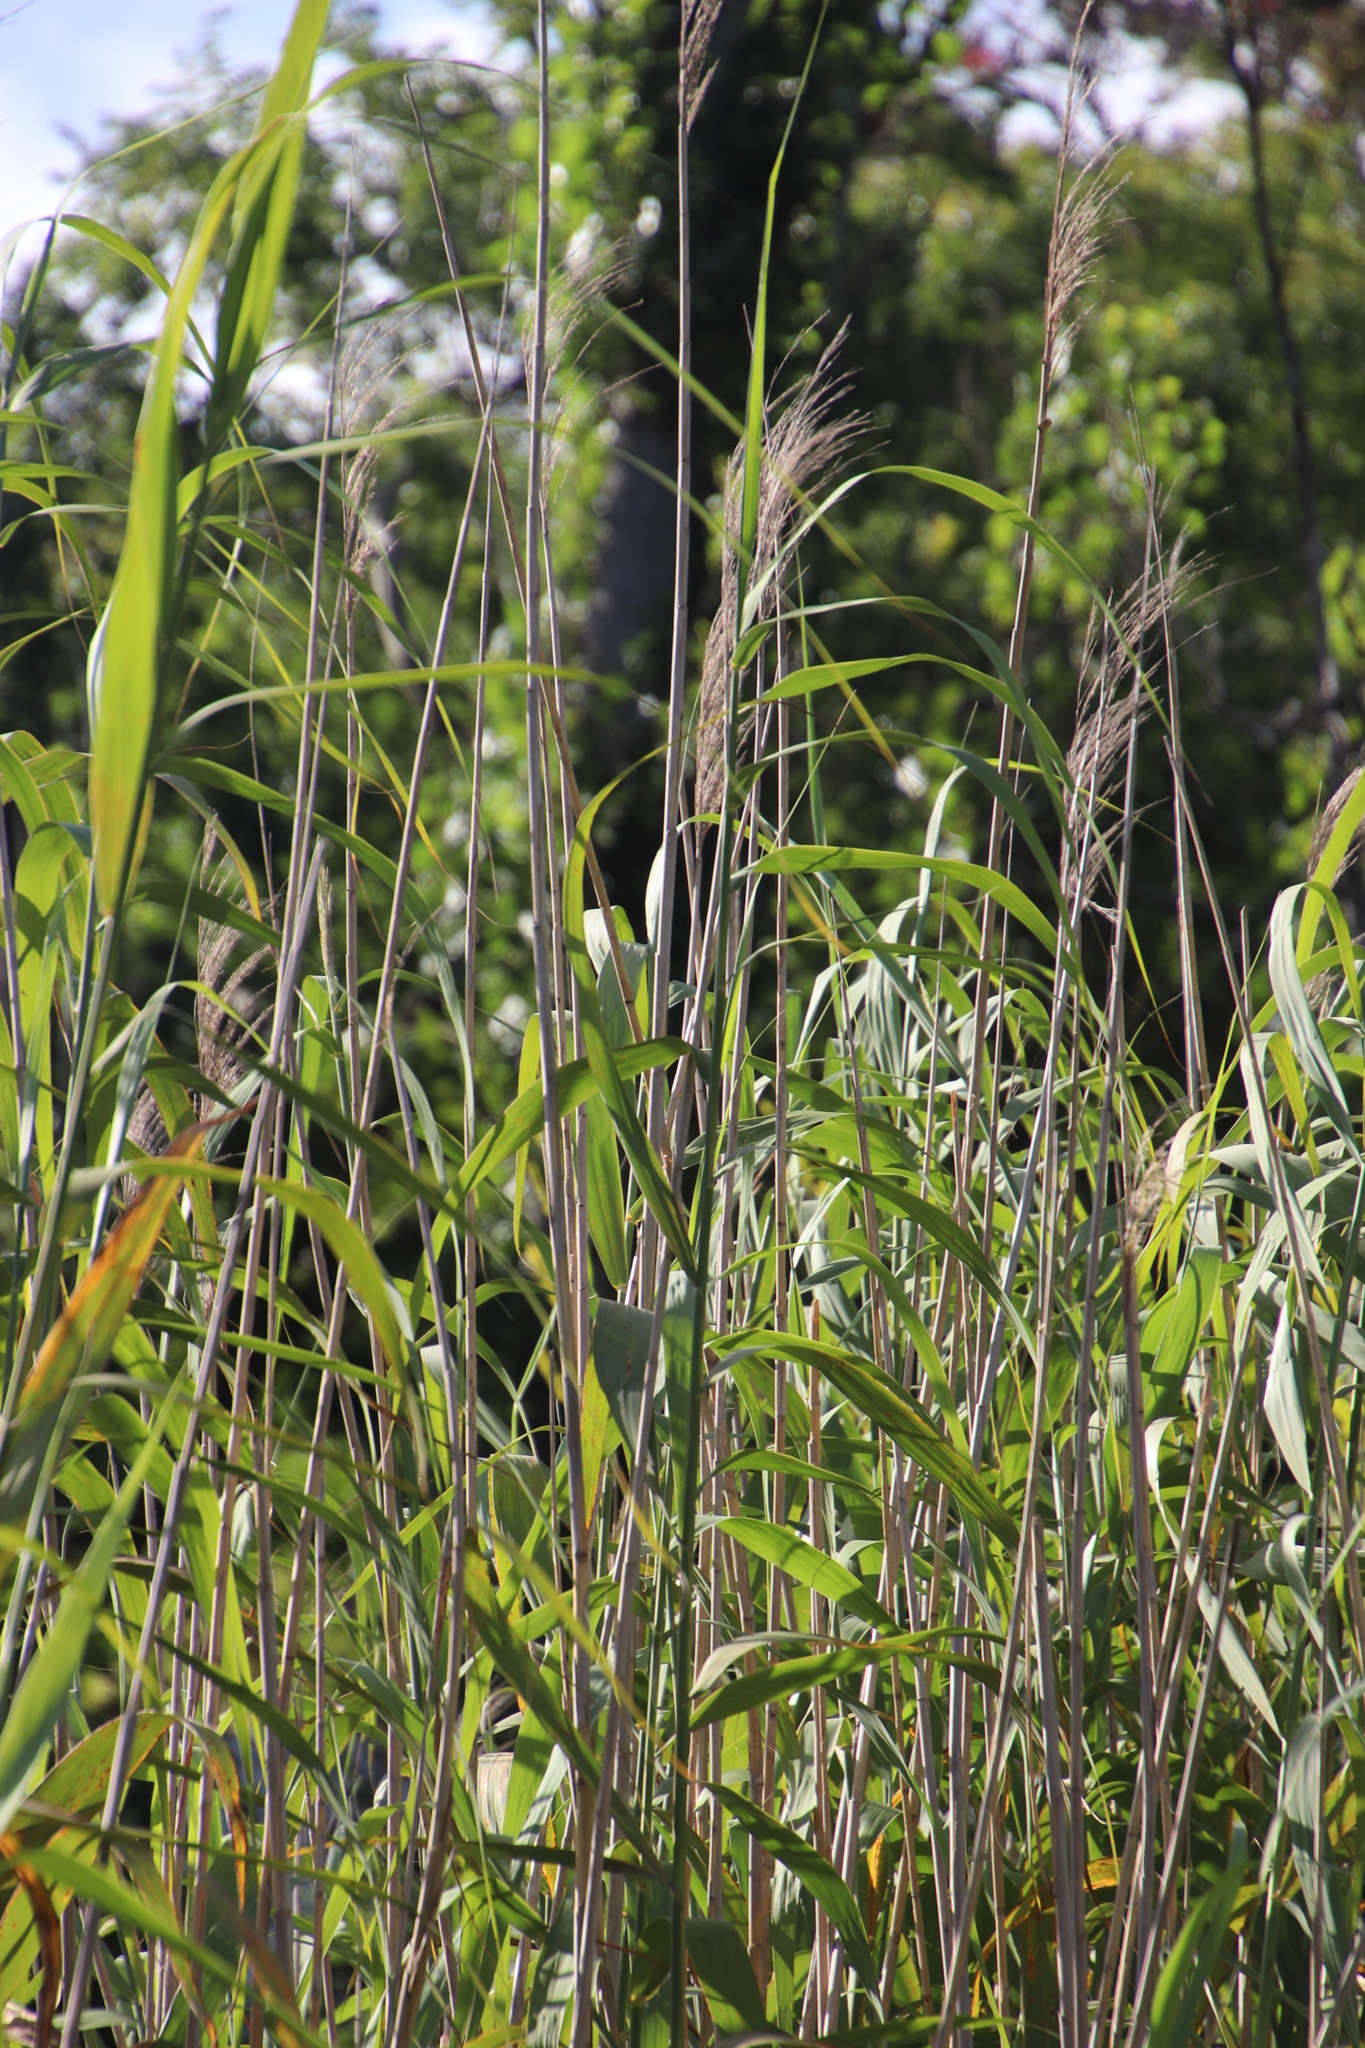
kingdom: Plantae
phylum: Tracheophyta
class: Liliopsida
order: Poales
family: Poaceae
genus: Phragmites
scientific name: Phragmites australis
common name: Common reed
